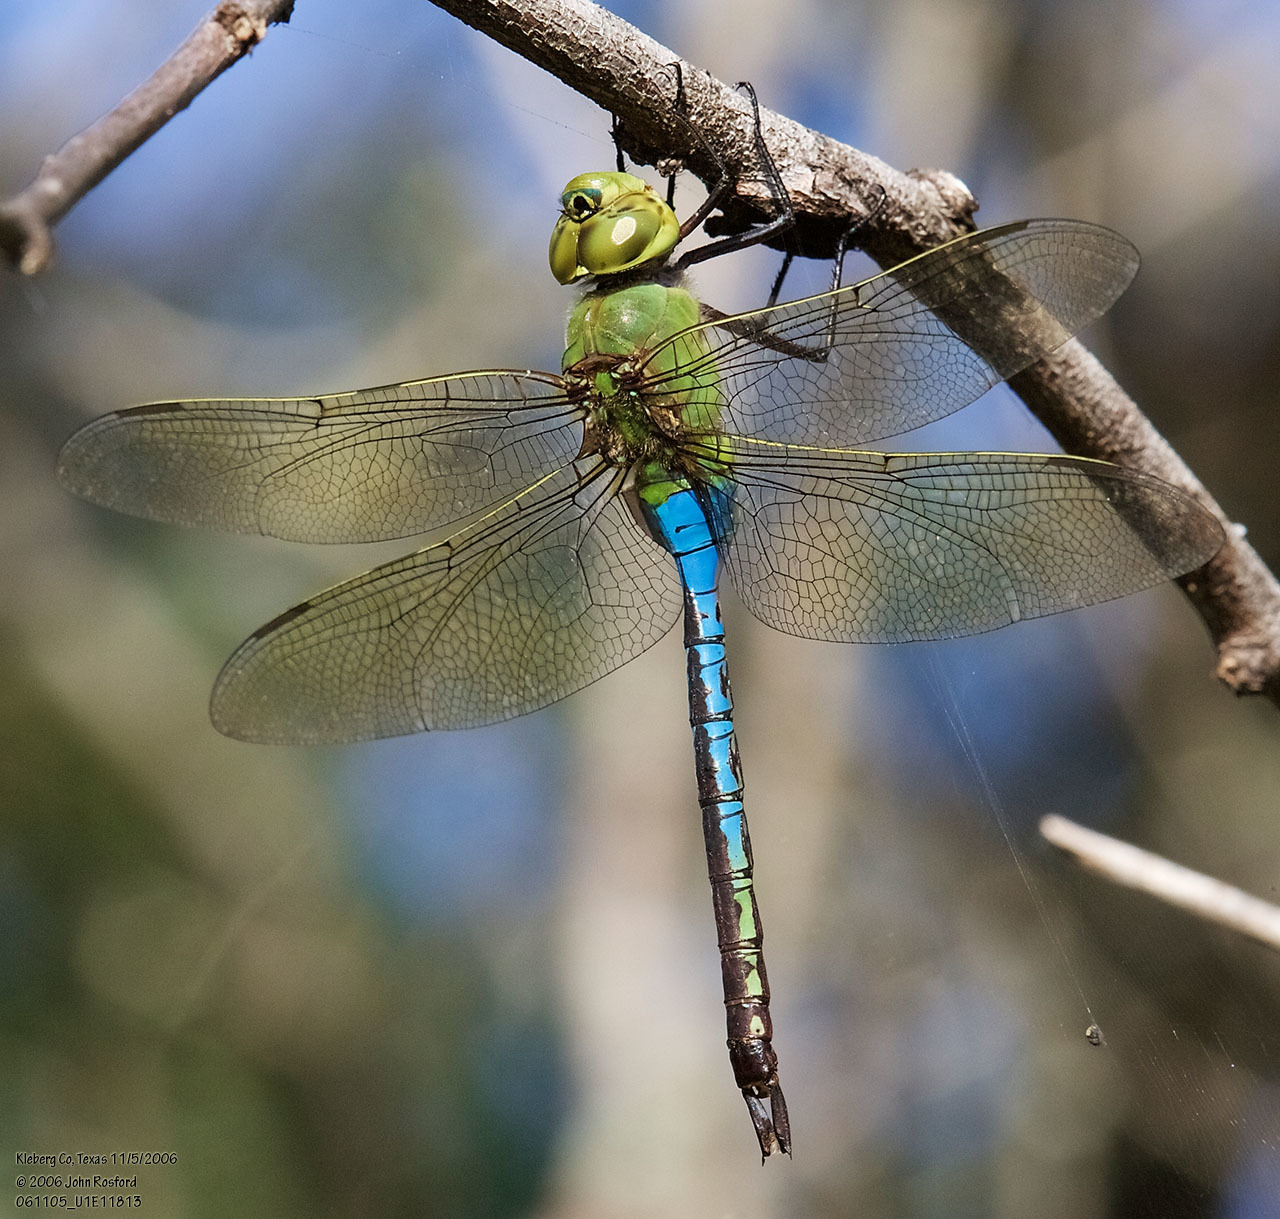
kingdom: Animalia
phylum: Arthropoda
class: Insecta
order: Odonata
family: Aeshnidae
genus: Anax
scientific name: Anax junius
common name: Common green darner
